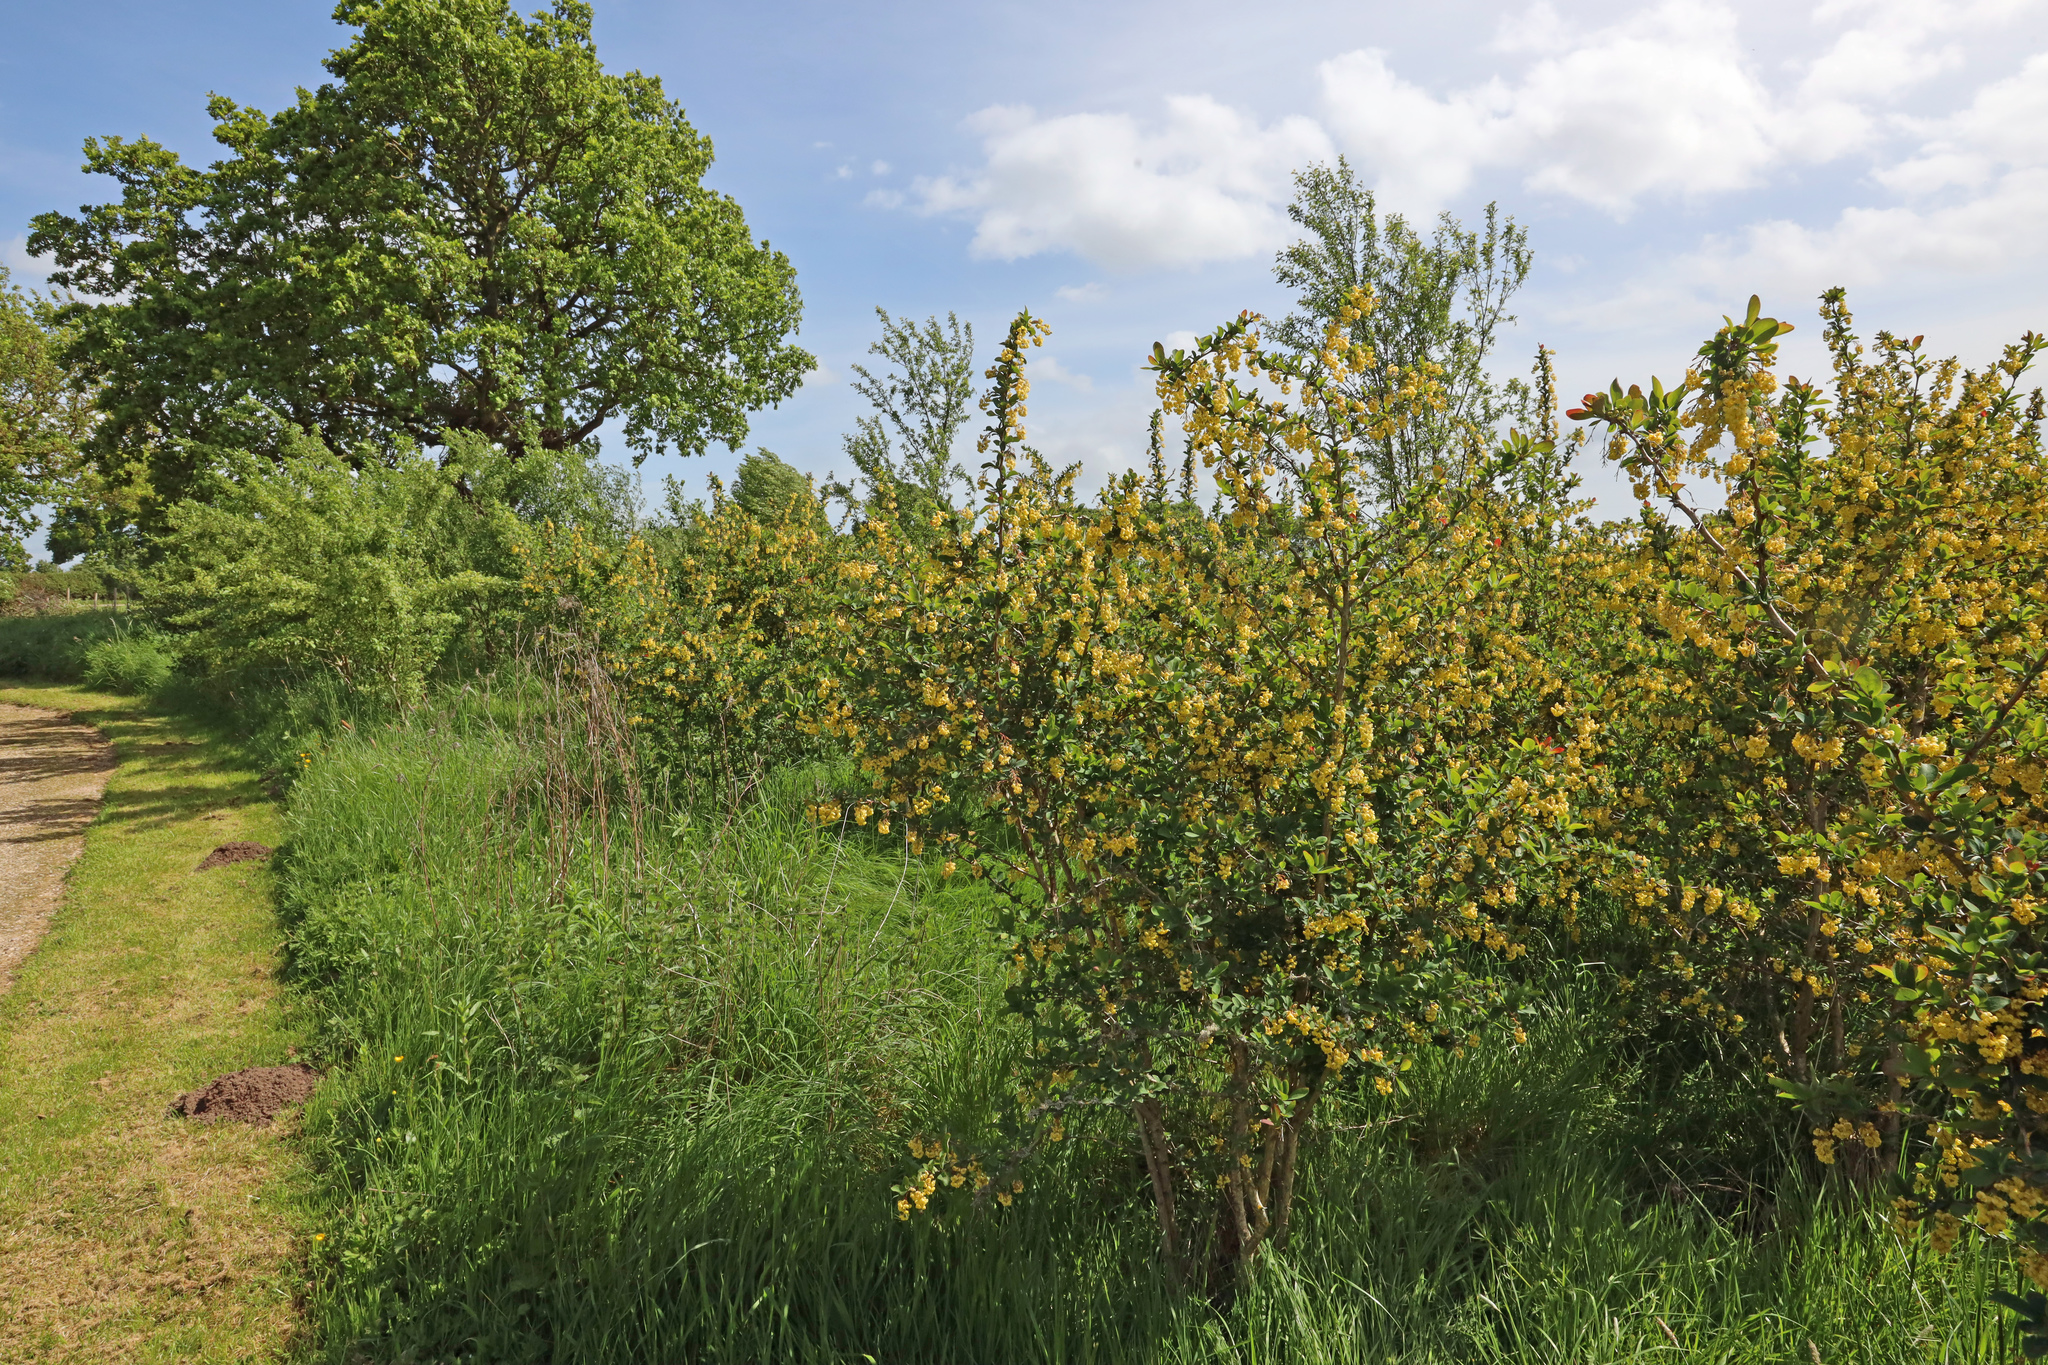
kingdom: Animalia
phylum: Chordata
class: Mammalia
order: Soricomorpha
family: Talpidae
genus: Talpa
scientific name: Talpa europaea
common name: European mole
